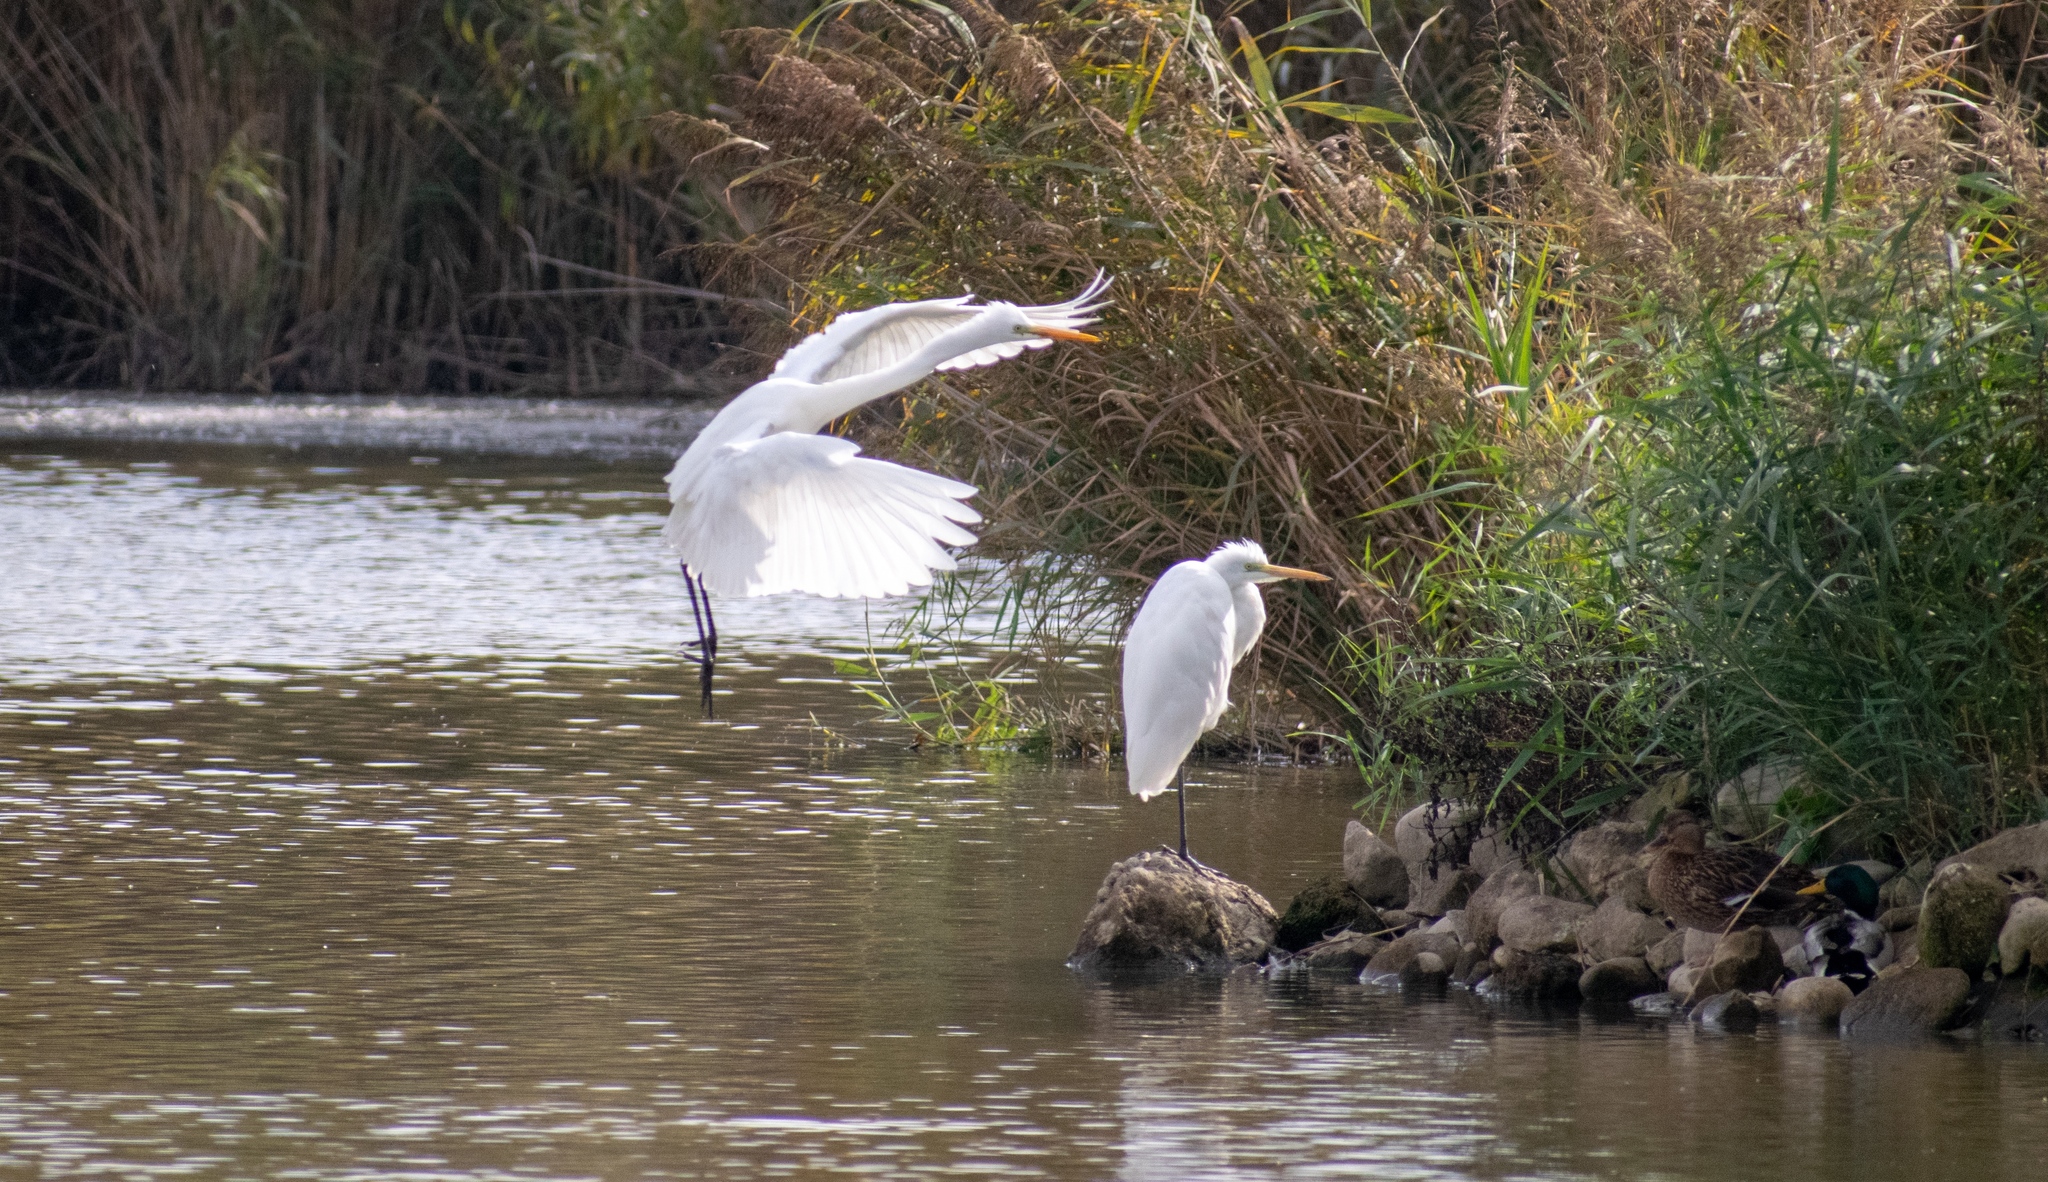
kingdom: Animalia
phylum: Chordata
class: Aves
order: Pelecaniformes
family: Ardeidae
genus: Ardea
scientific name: Ardea alba
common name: Great egret
